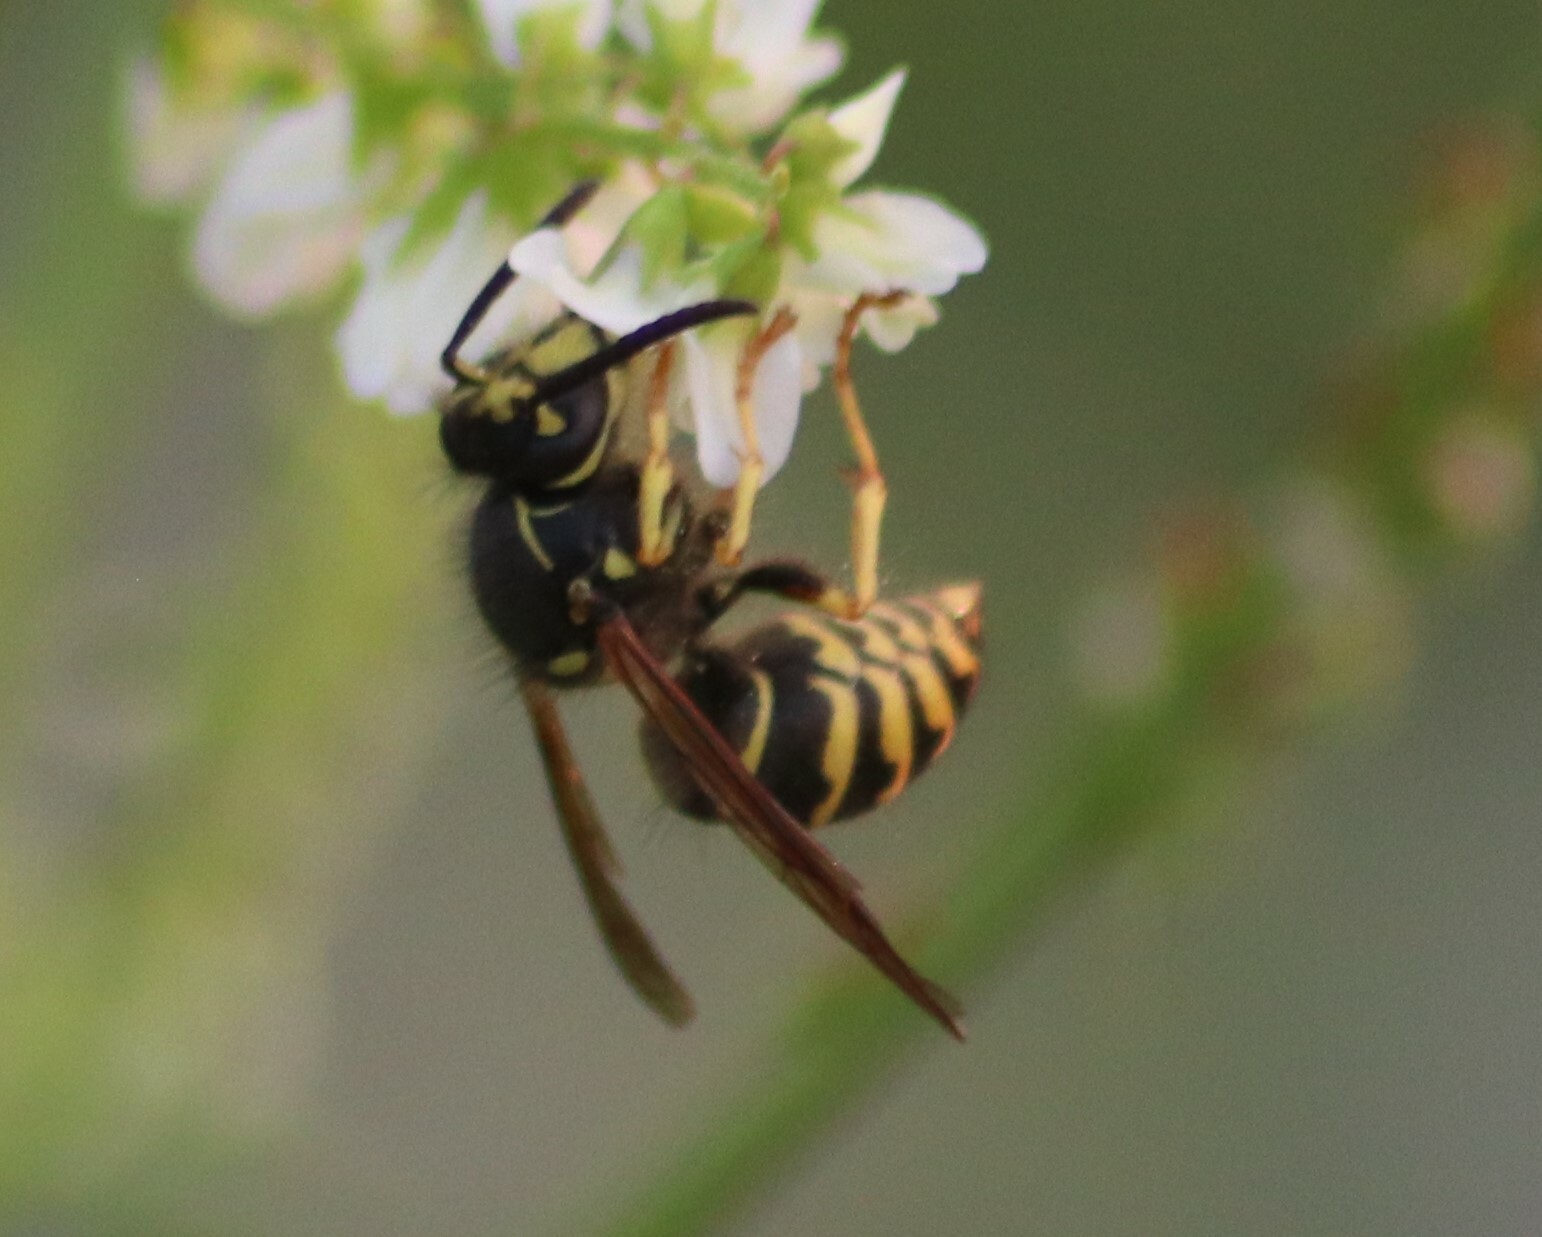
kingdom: Animalia
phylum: Arthropoda
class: Insecta
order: Hymenoptera
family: Vespidae
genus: Dolichovespula
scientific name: Dolichovespula arenaria
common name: Aerial yellowjacket
